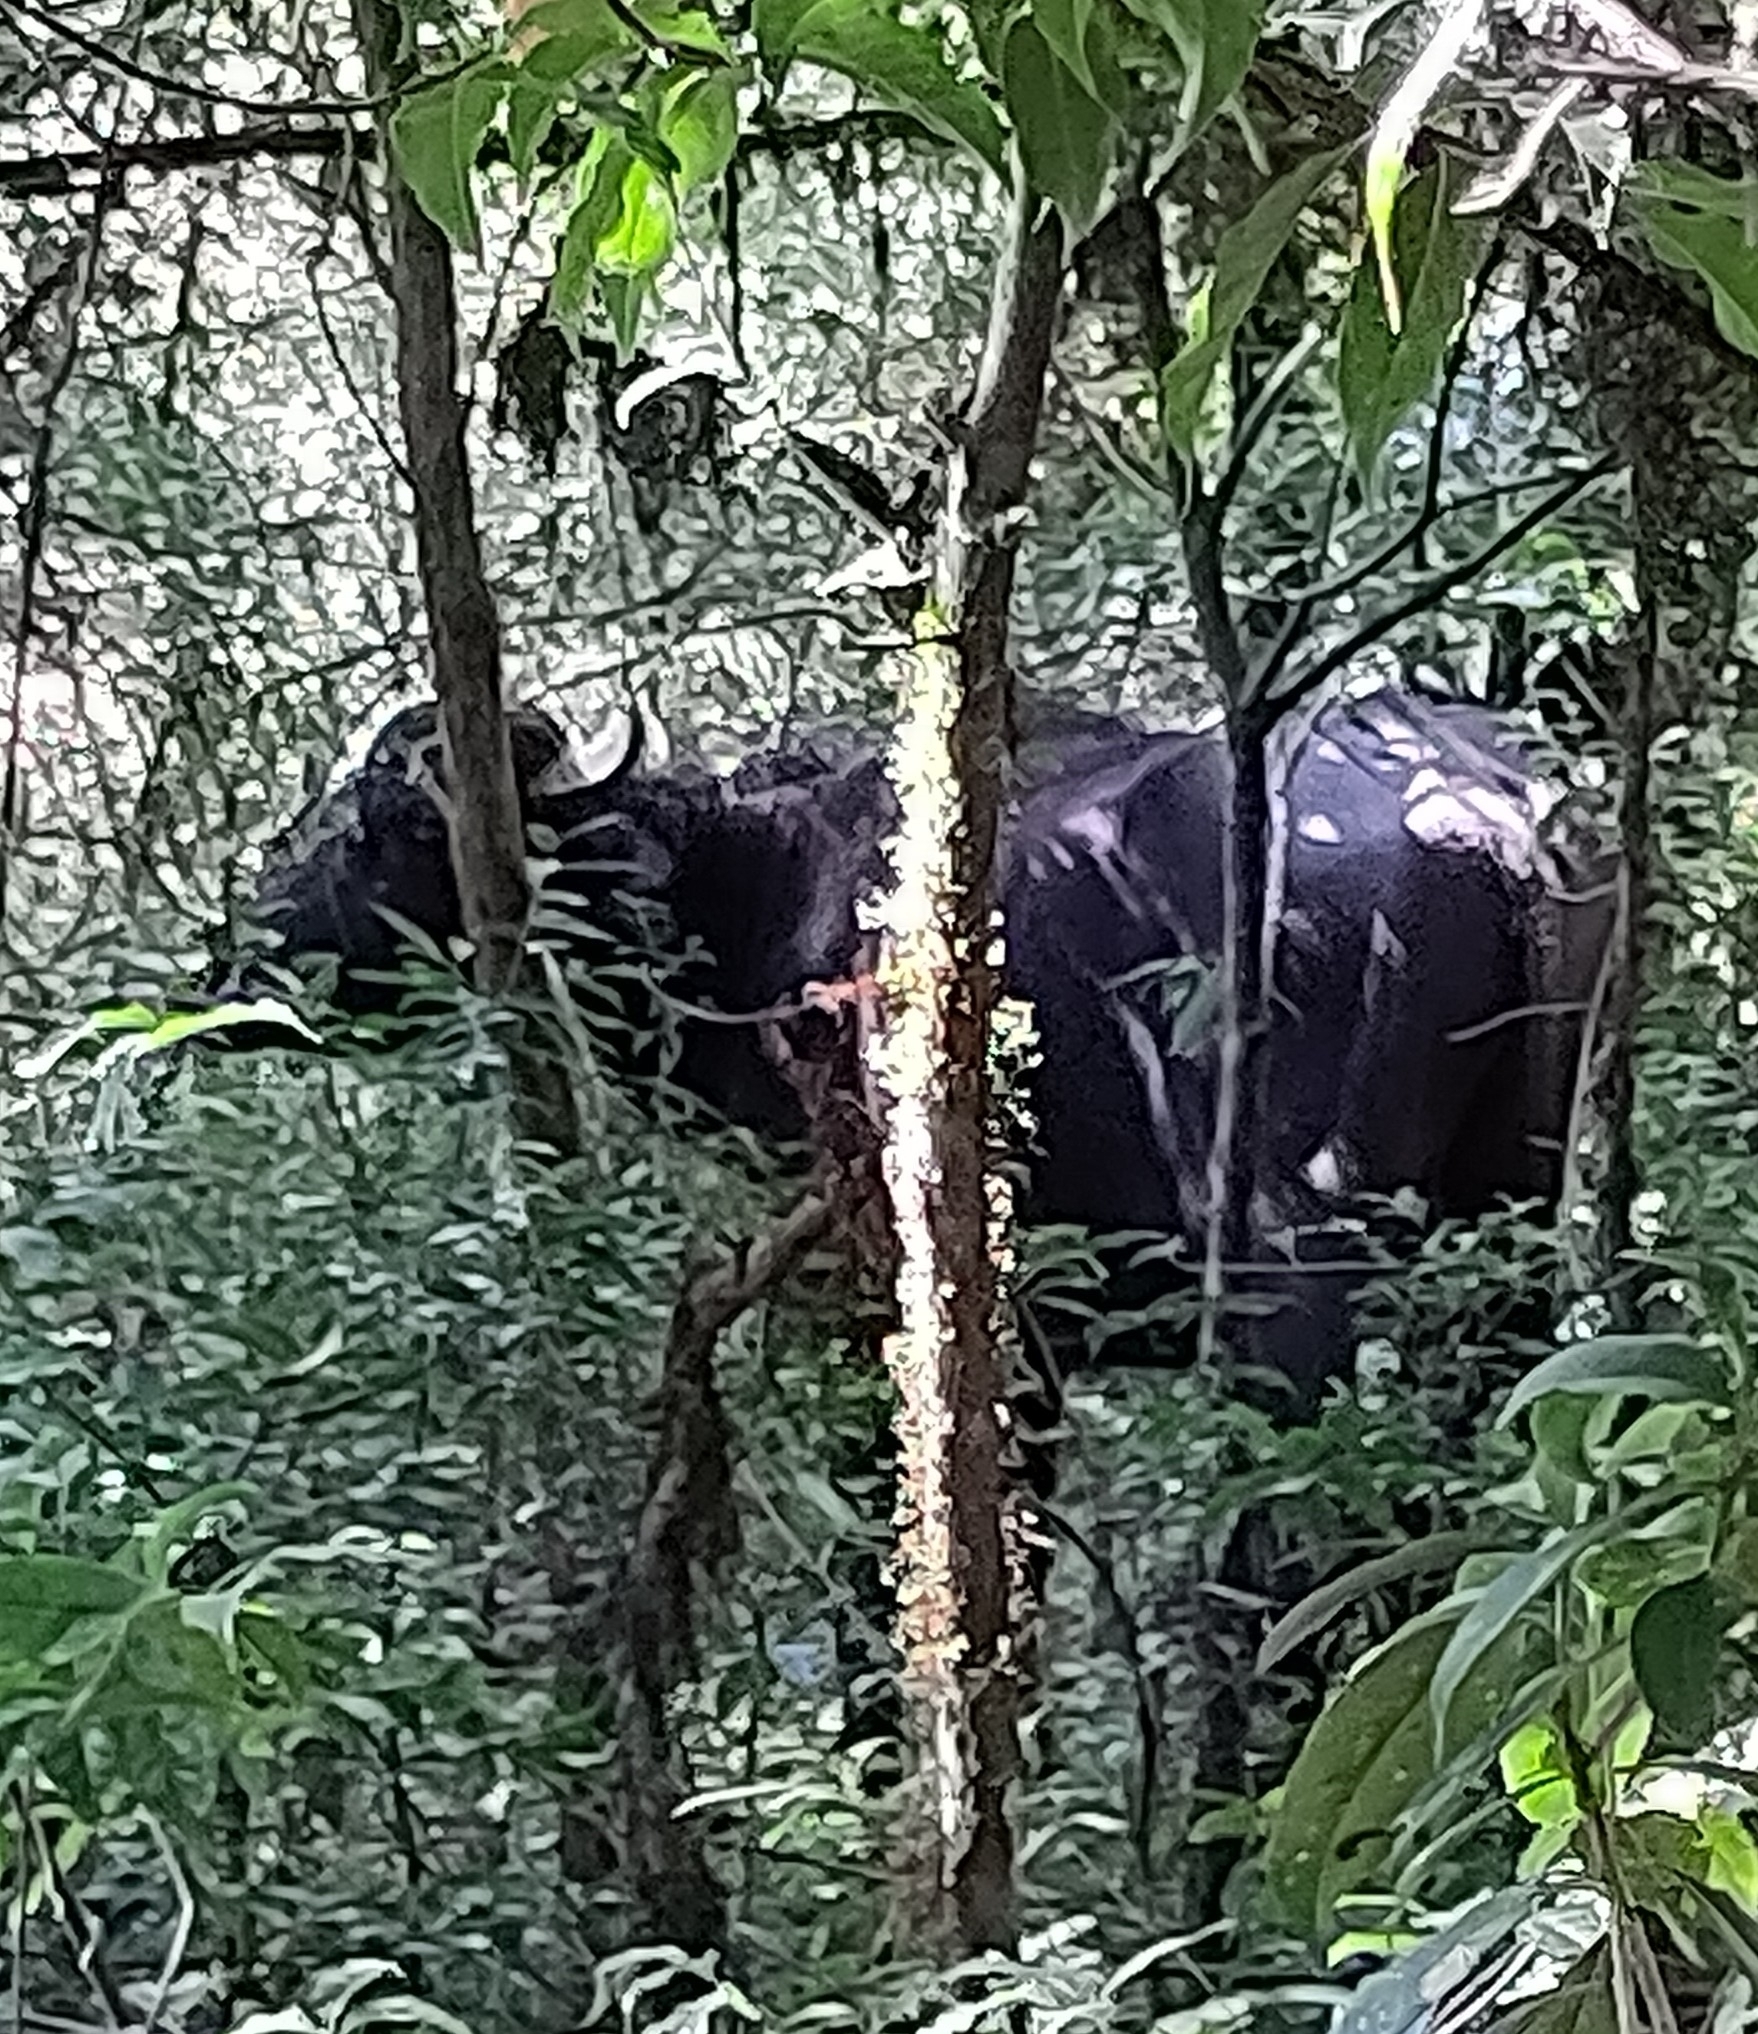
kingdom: Animalia
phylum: Chordata
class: Mammalia
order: Artiodactyla
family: Bovidae
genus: Bos
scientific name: Bos frontalis
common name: Gaur
